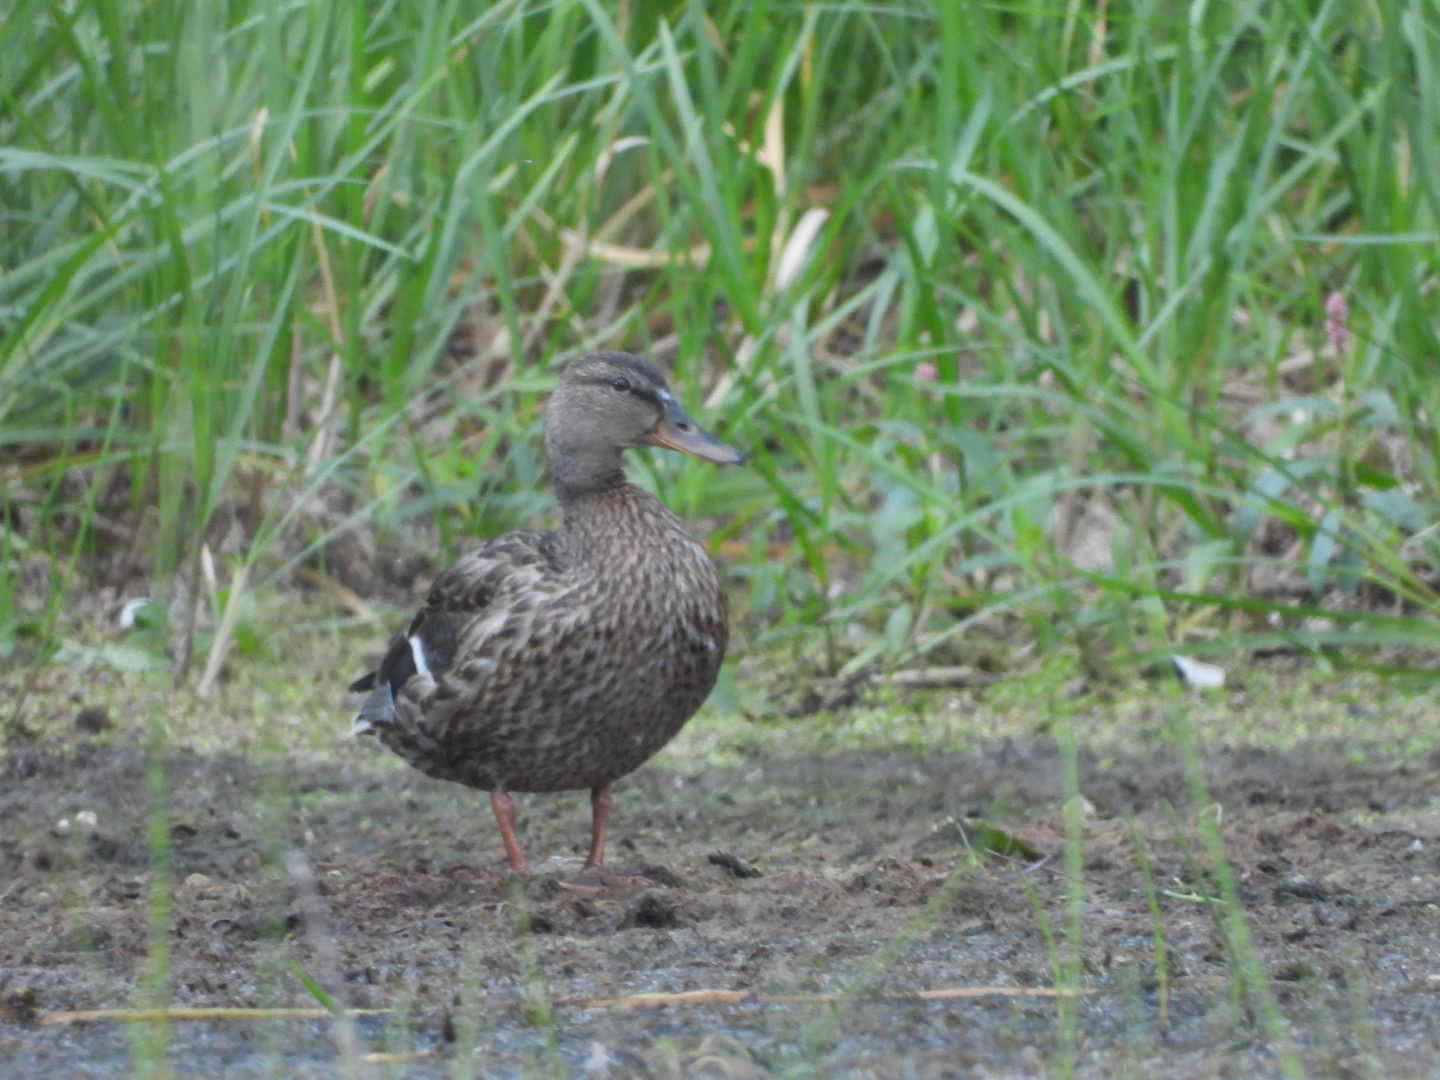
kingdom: Animalia
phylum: Chordata
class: Aves
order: Anseriformes
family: Anatidae
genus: Anas
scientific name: Anas platyrhynchos
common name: Mallard
